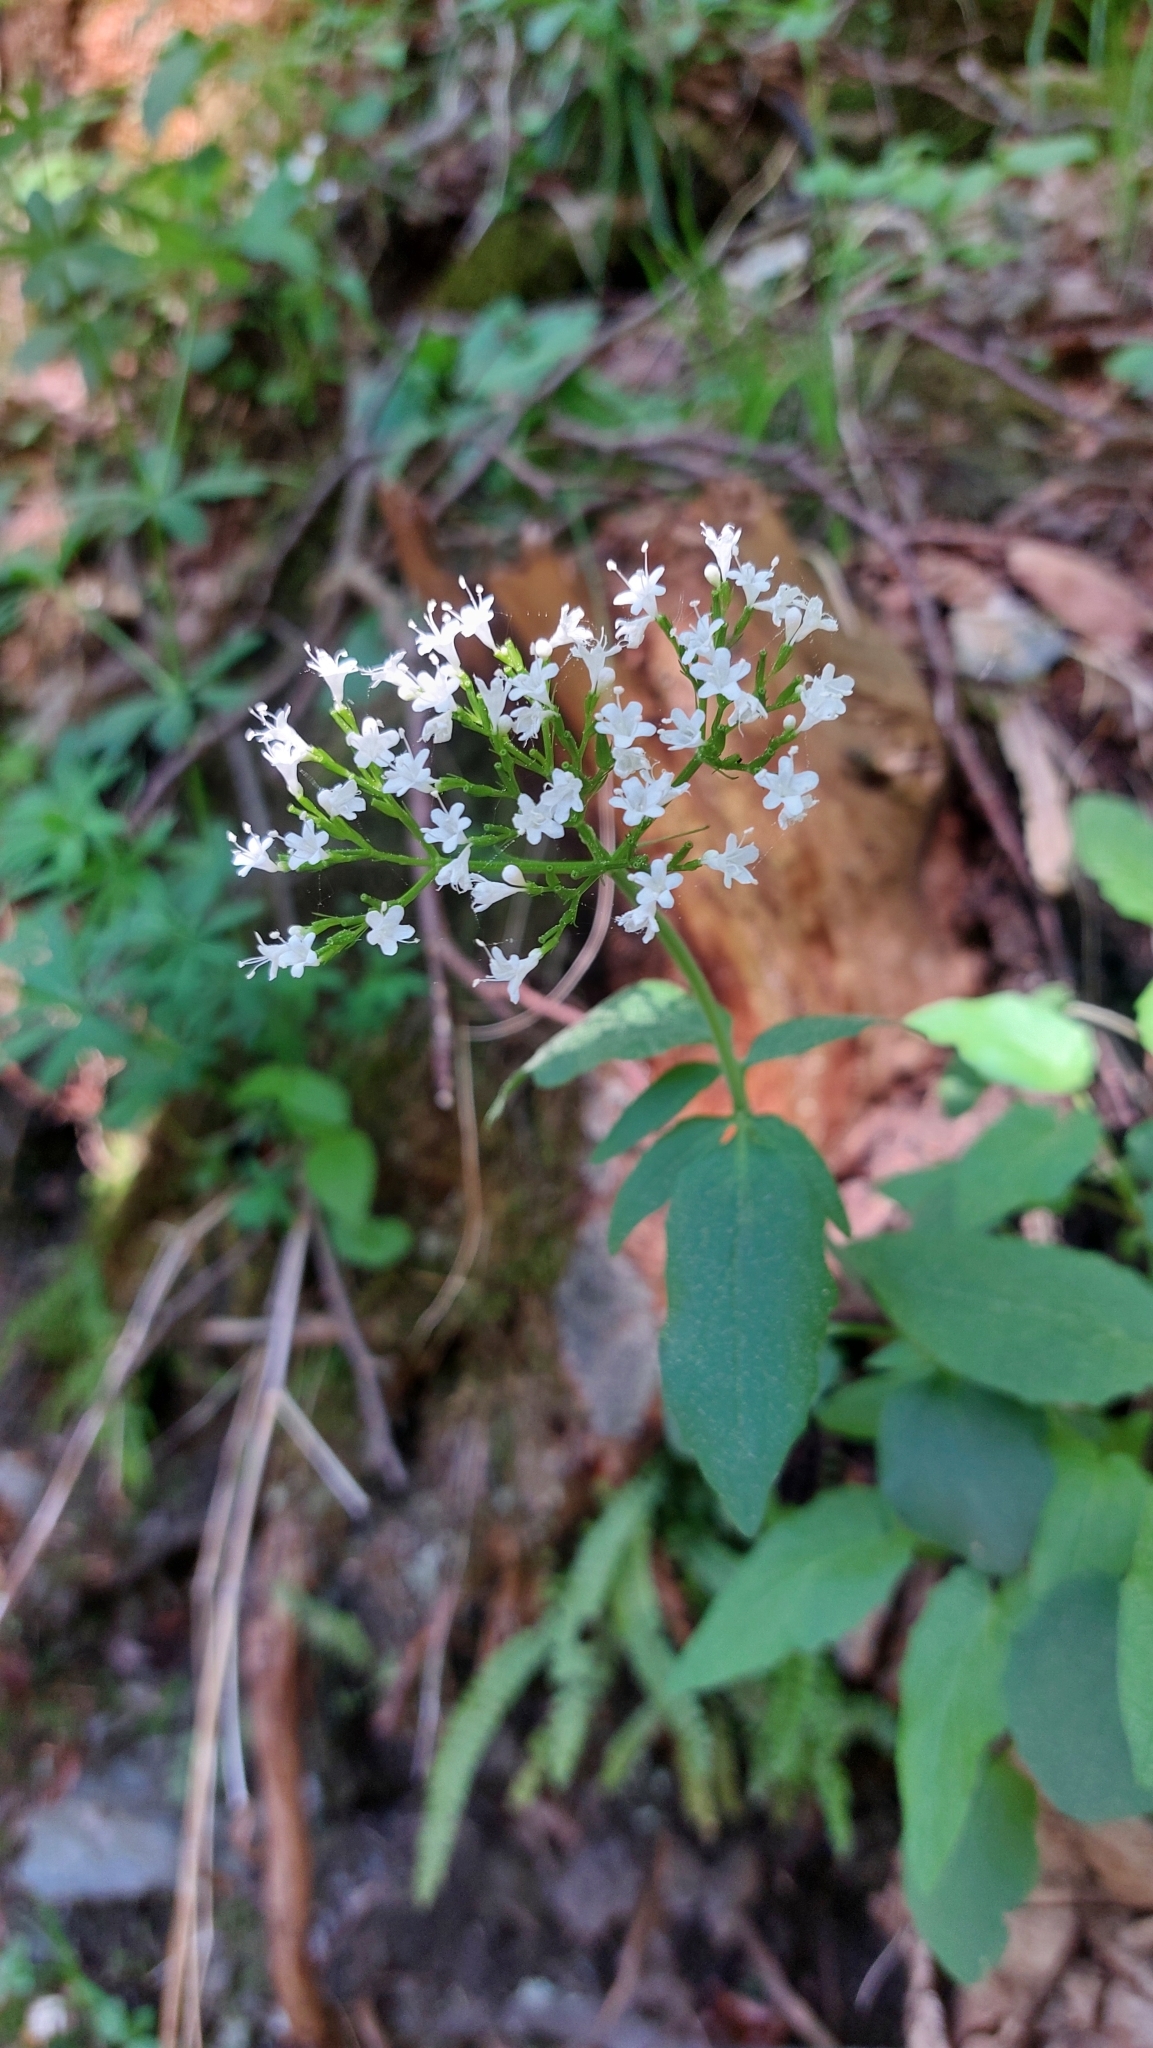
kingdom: Plantae
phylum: Tracheophyta
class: Magnoliopsida
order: Dipsacales
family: Caprifoliaceae
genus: Valeriana
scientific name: Valeriana tripteris
